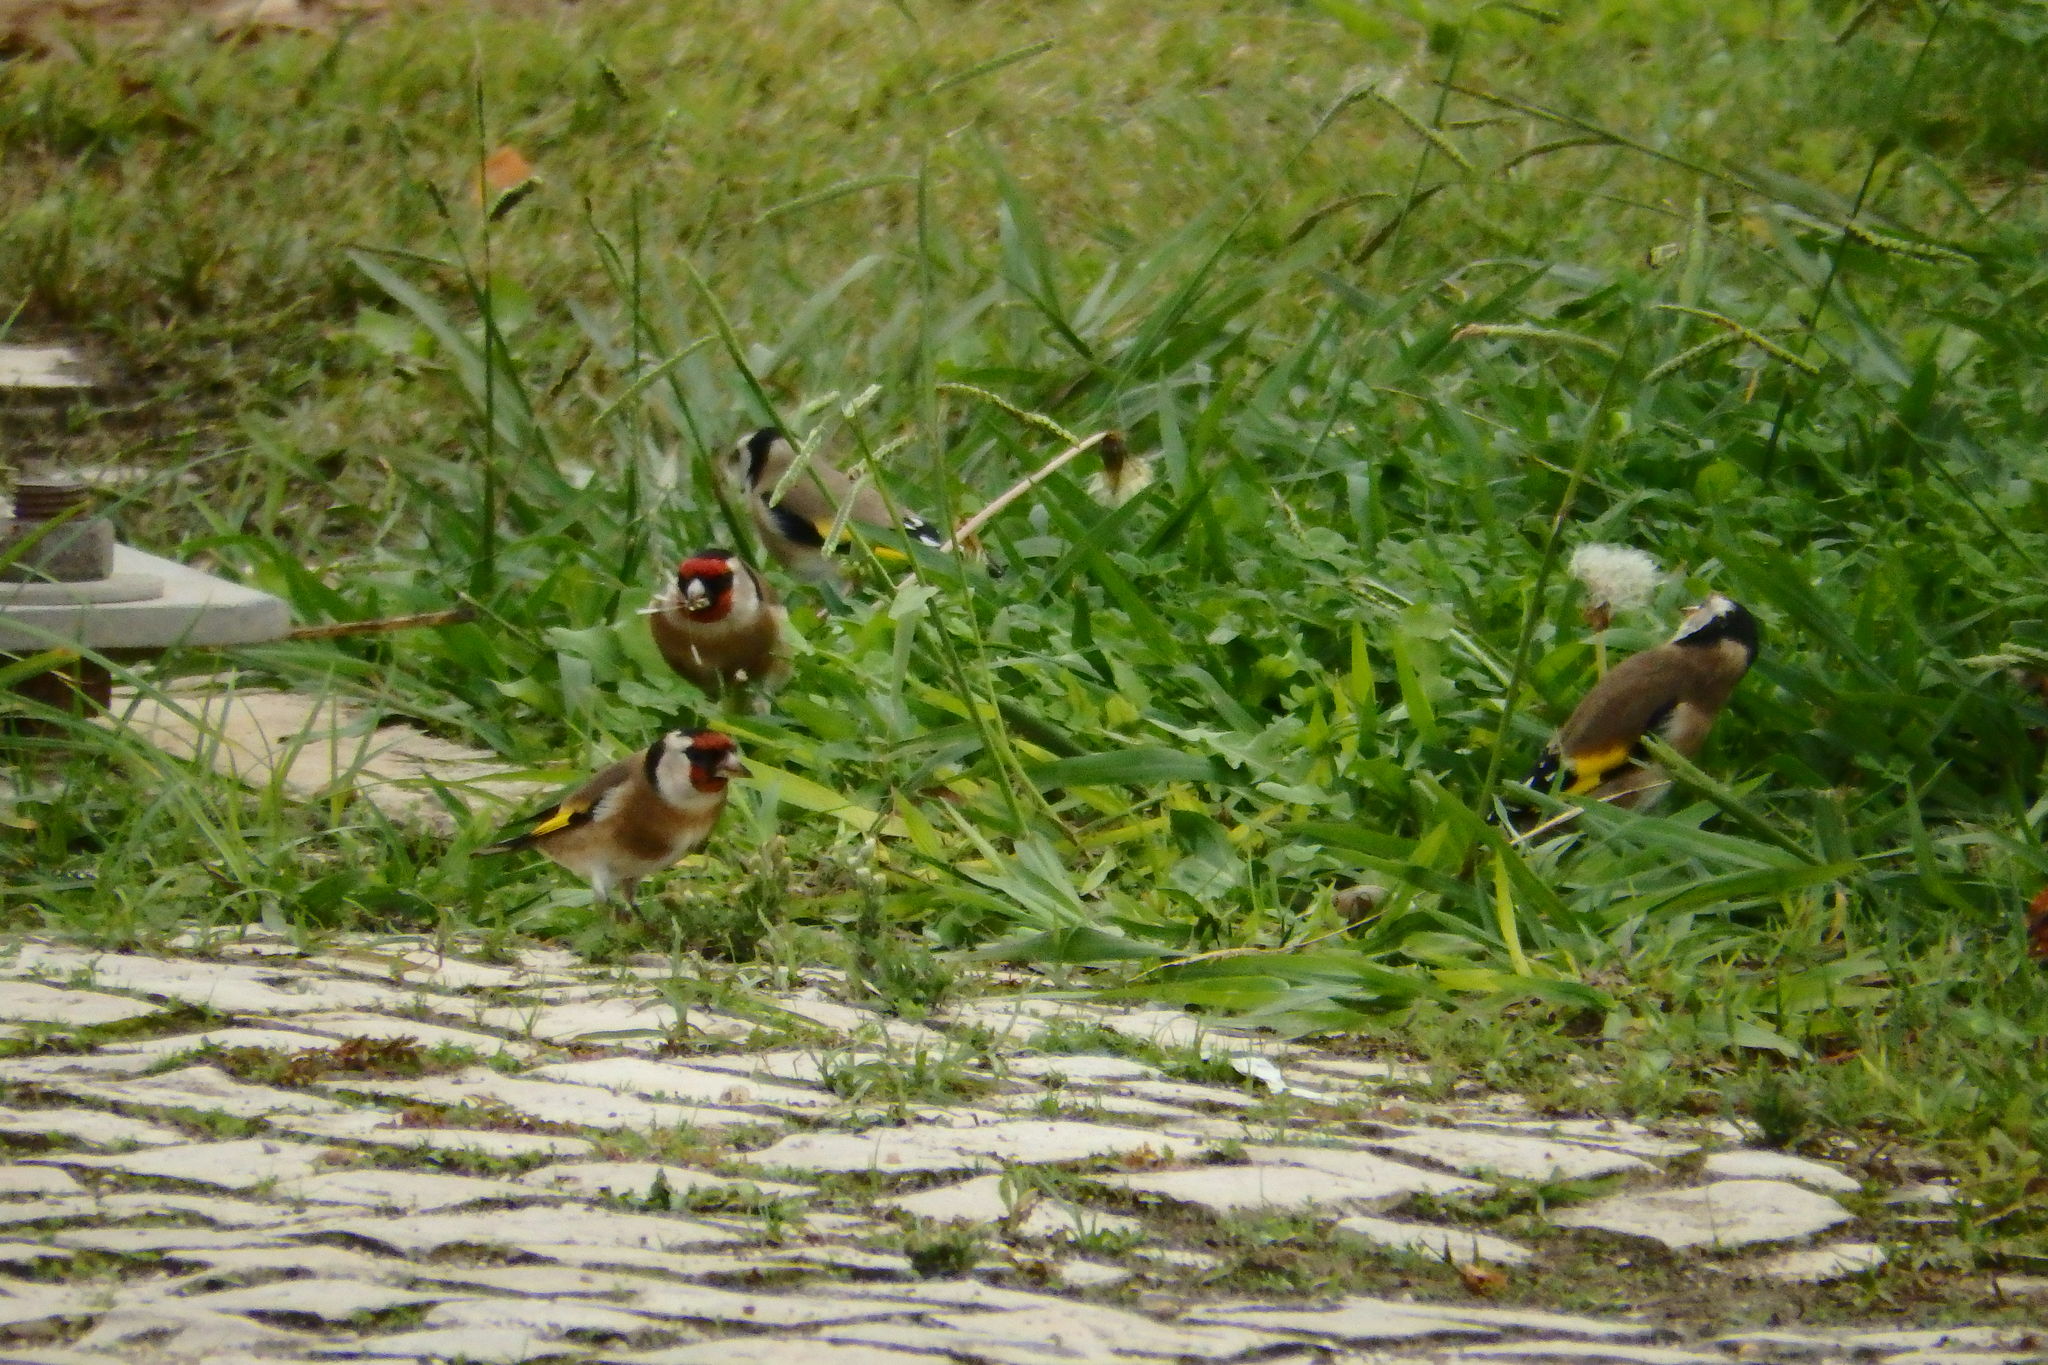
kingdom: Animalia
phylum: Chordata
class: Aves
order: Passeriformes
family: Fringillidae
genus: Carduelis
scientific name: Carduelis carduelis
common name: European goldfinch
